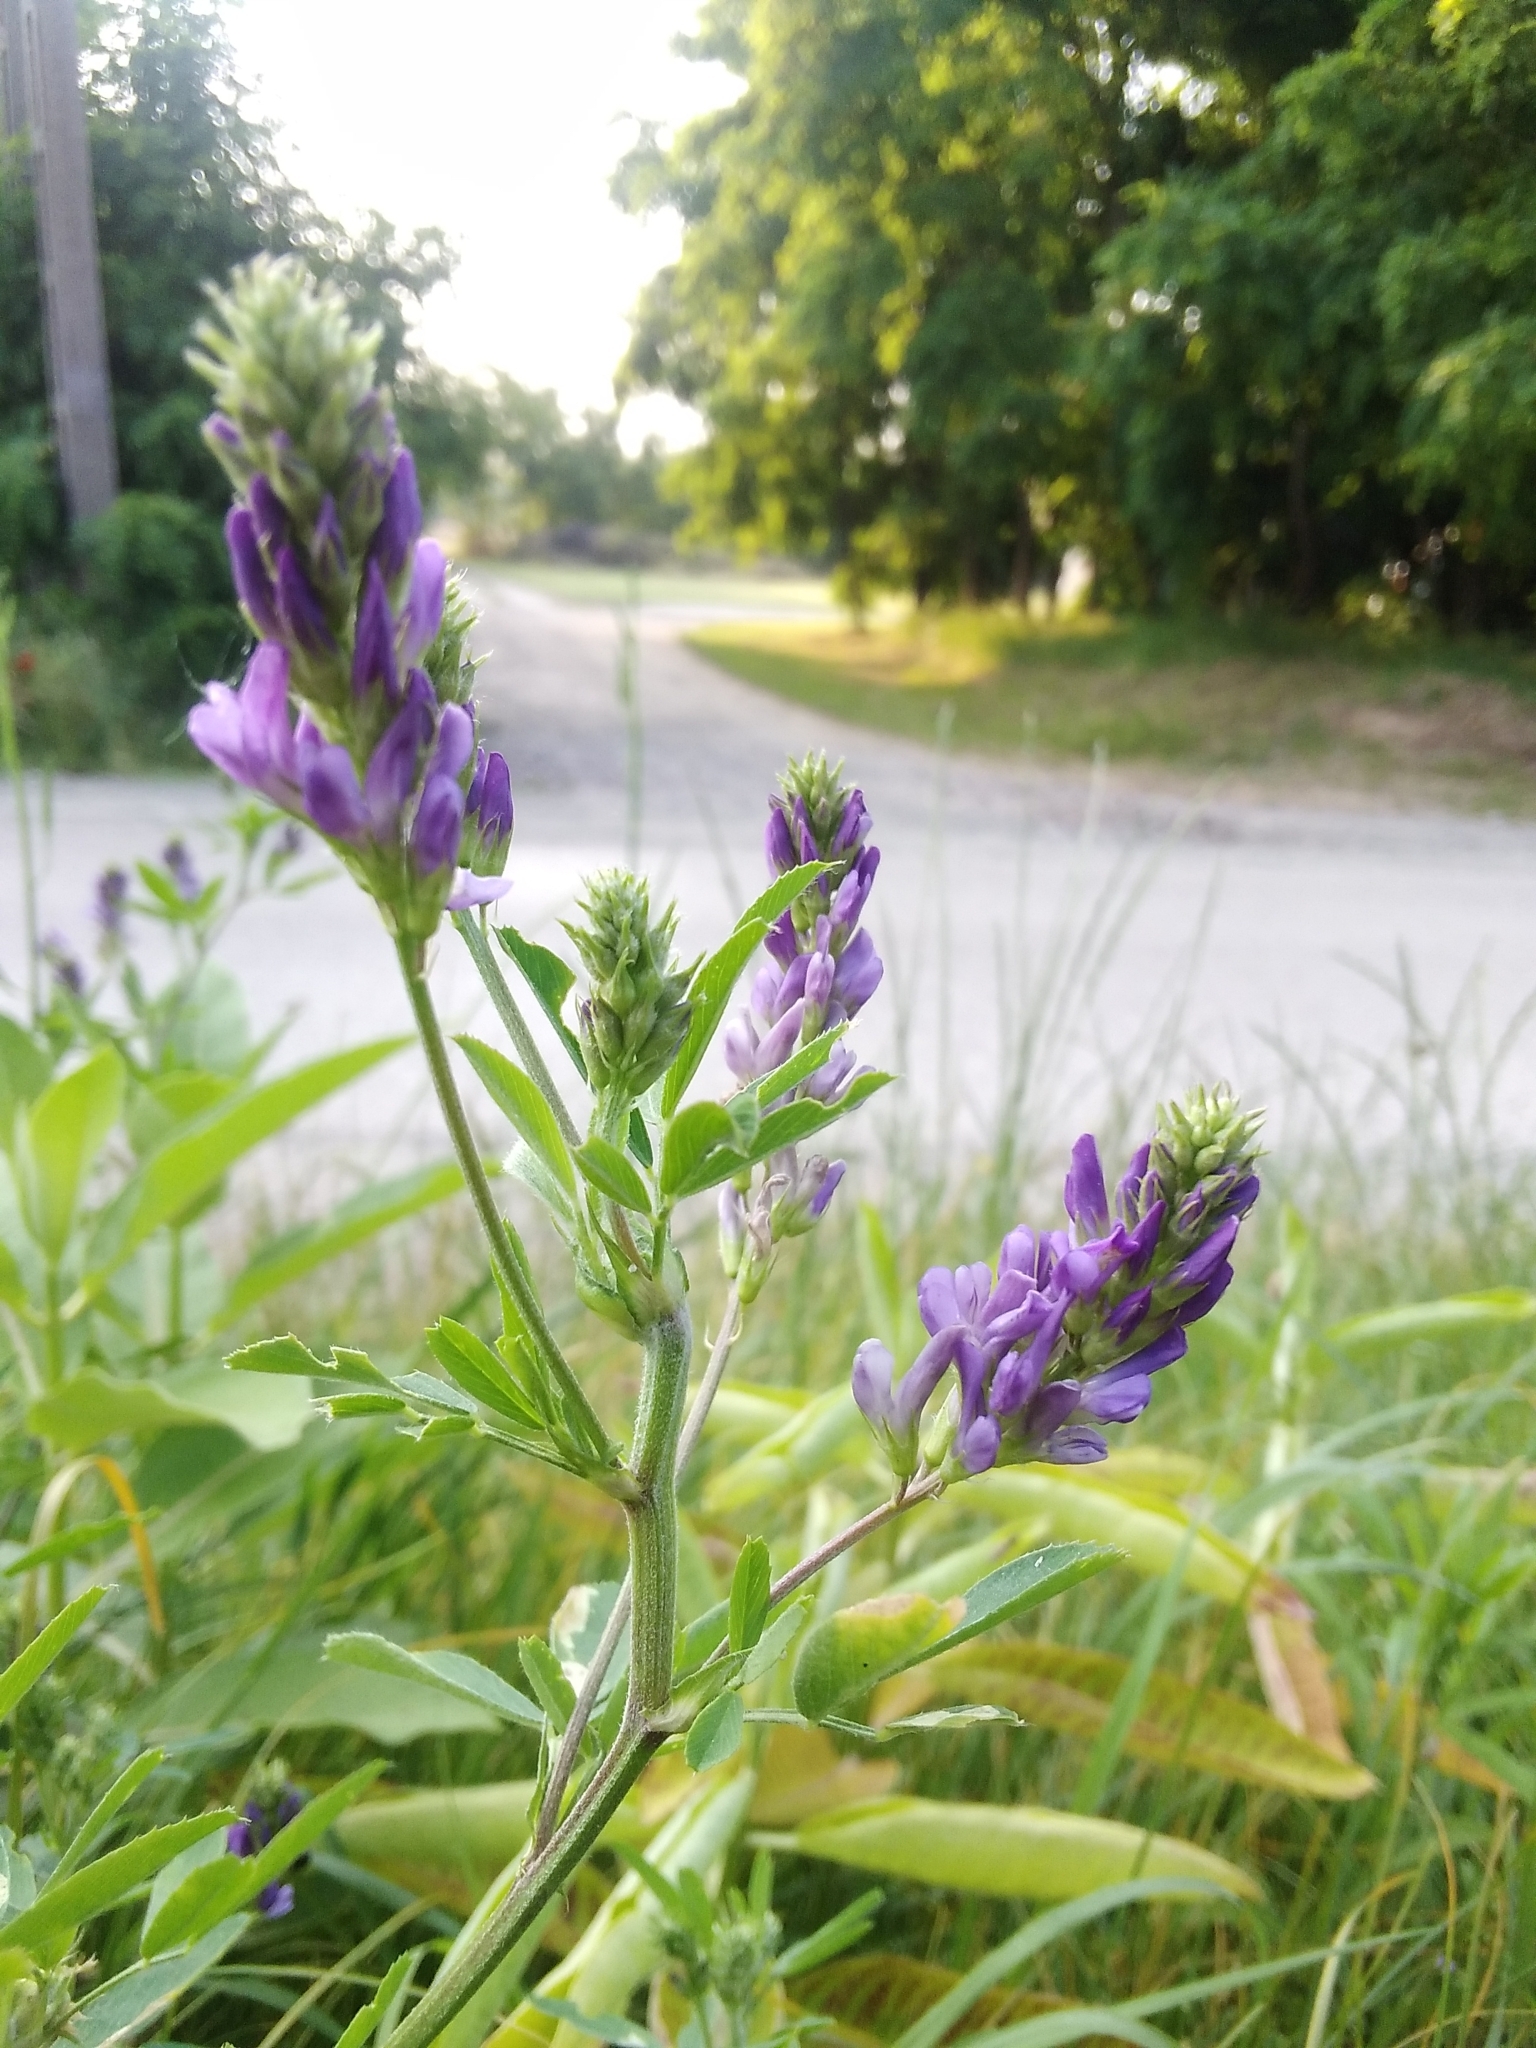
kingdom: Plantae
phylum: Tracheophyta
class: Magnoliopsida
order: Fabales
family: Fabaceae
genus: Medicago
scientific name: Medicago sativa
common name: Alfalfa
